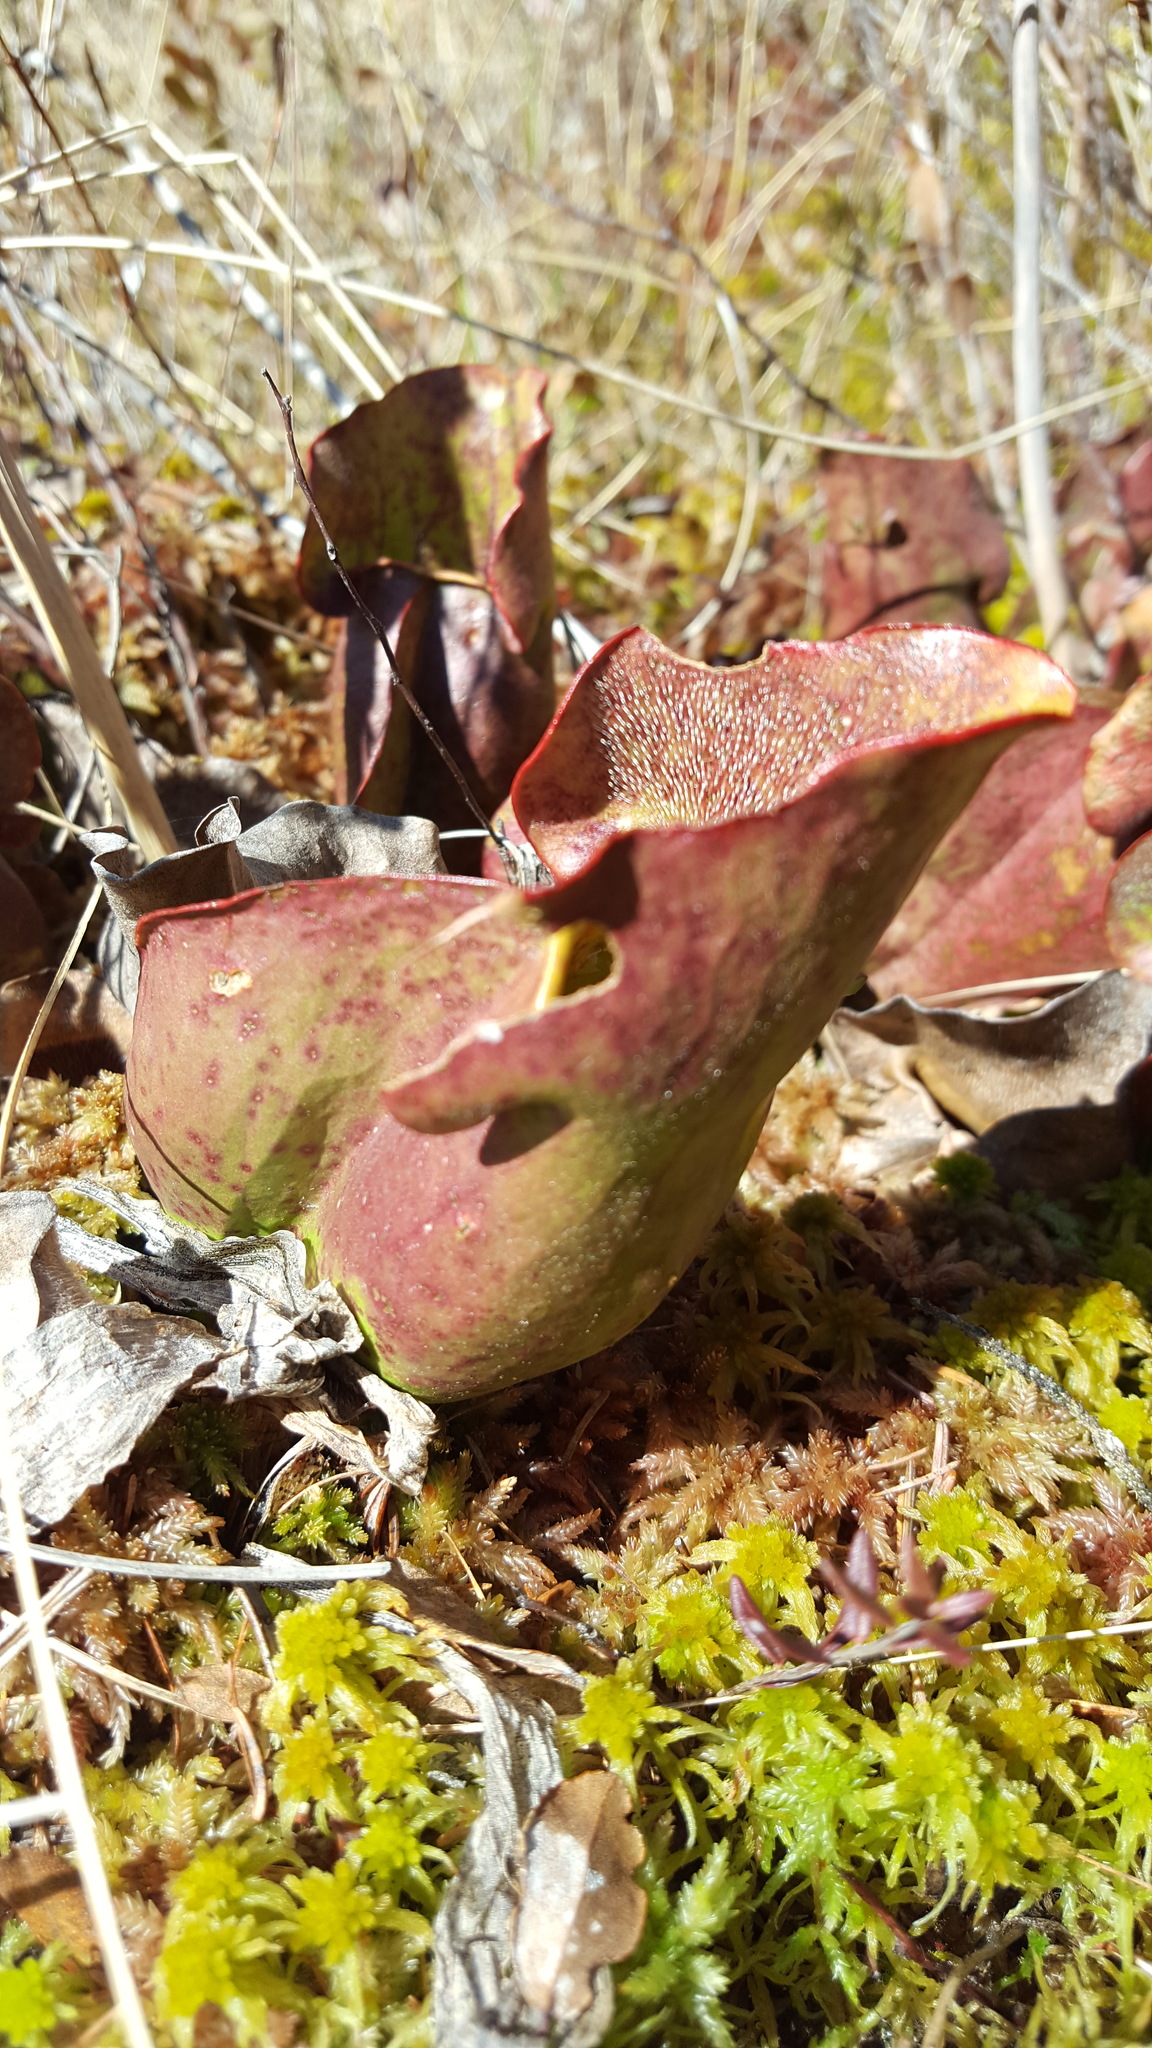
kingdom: Plantae
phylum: Tracheophyta
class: Magnoliopsida
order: Ericales
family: Sarraceniaceae
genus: Sarracenia
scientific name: Sarracenia purpurea
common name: Pitcherplant
